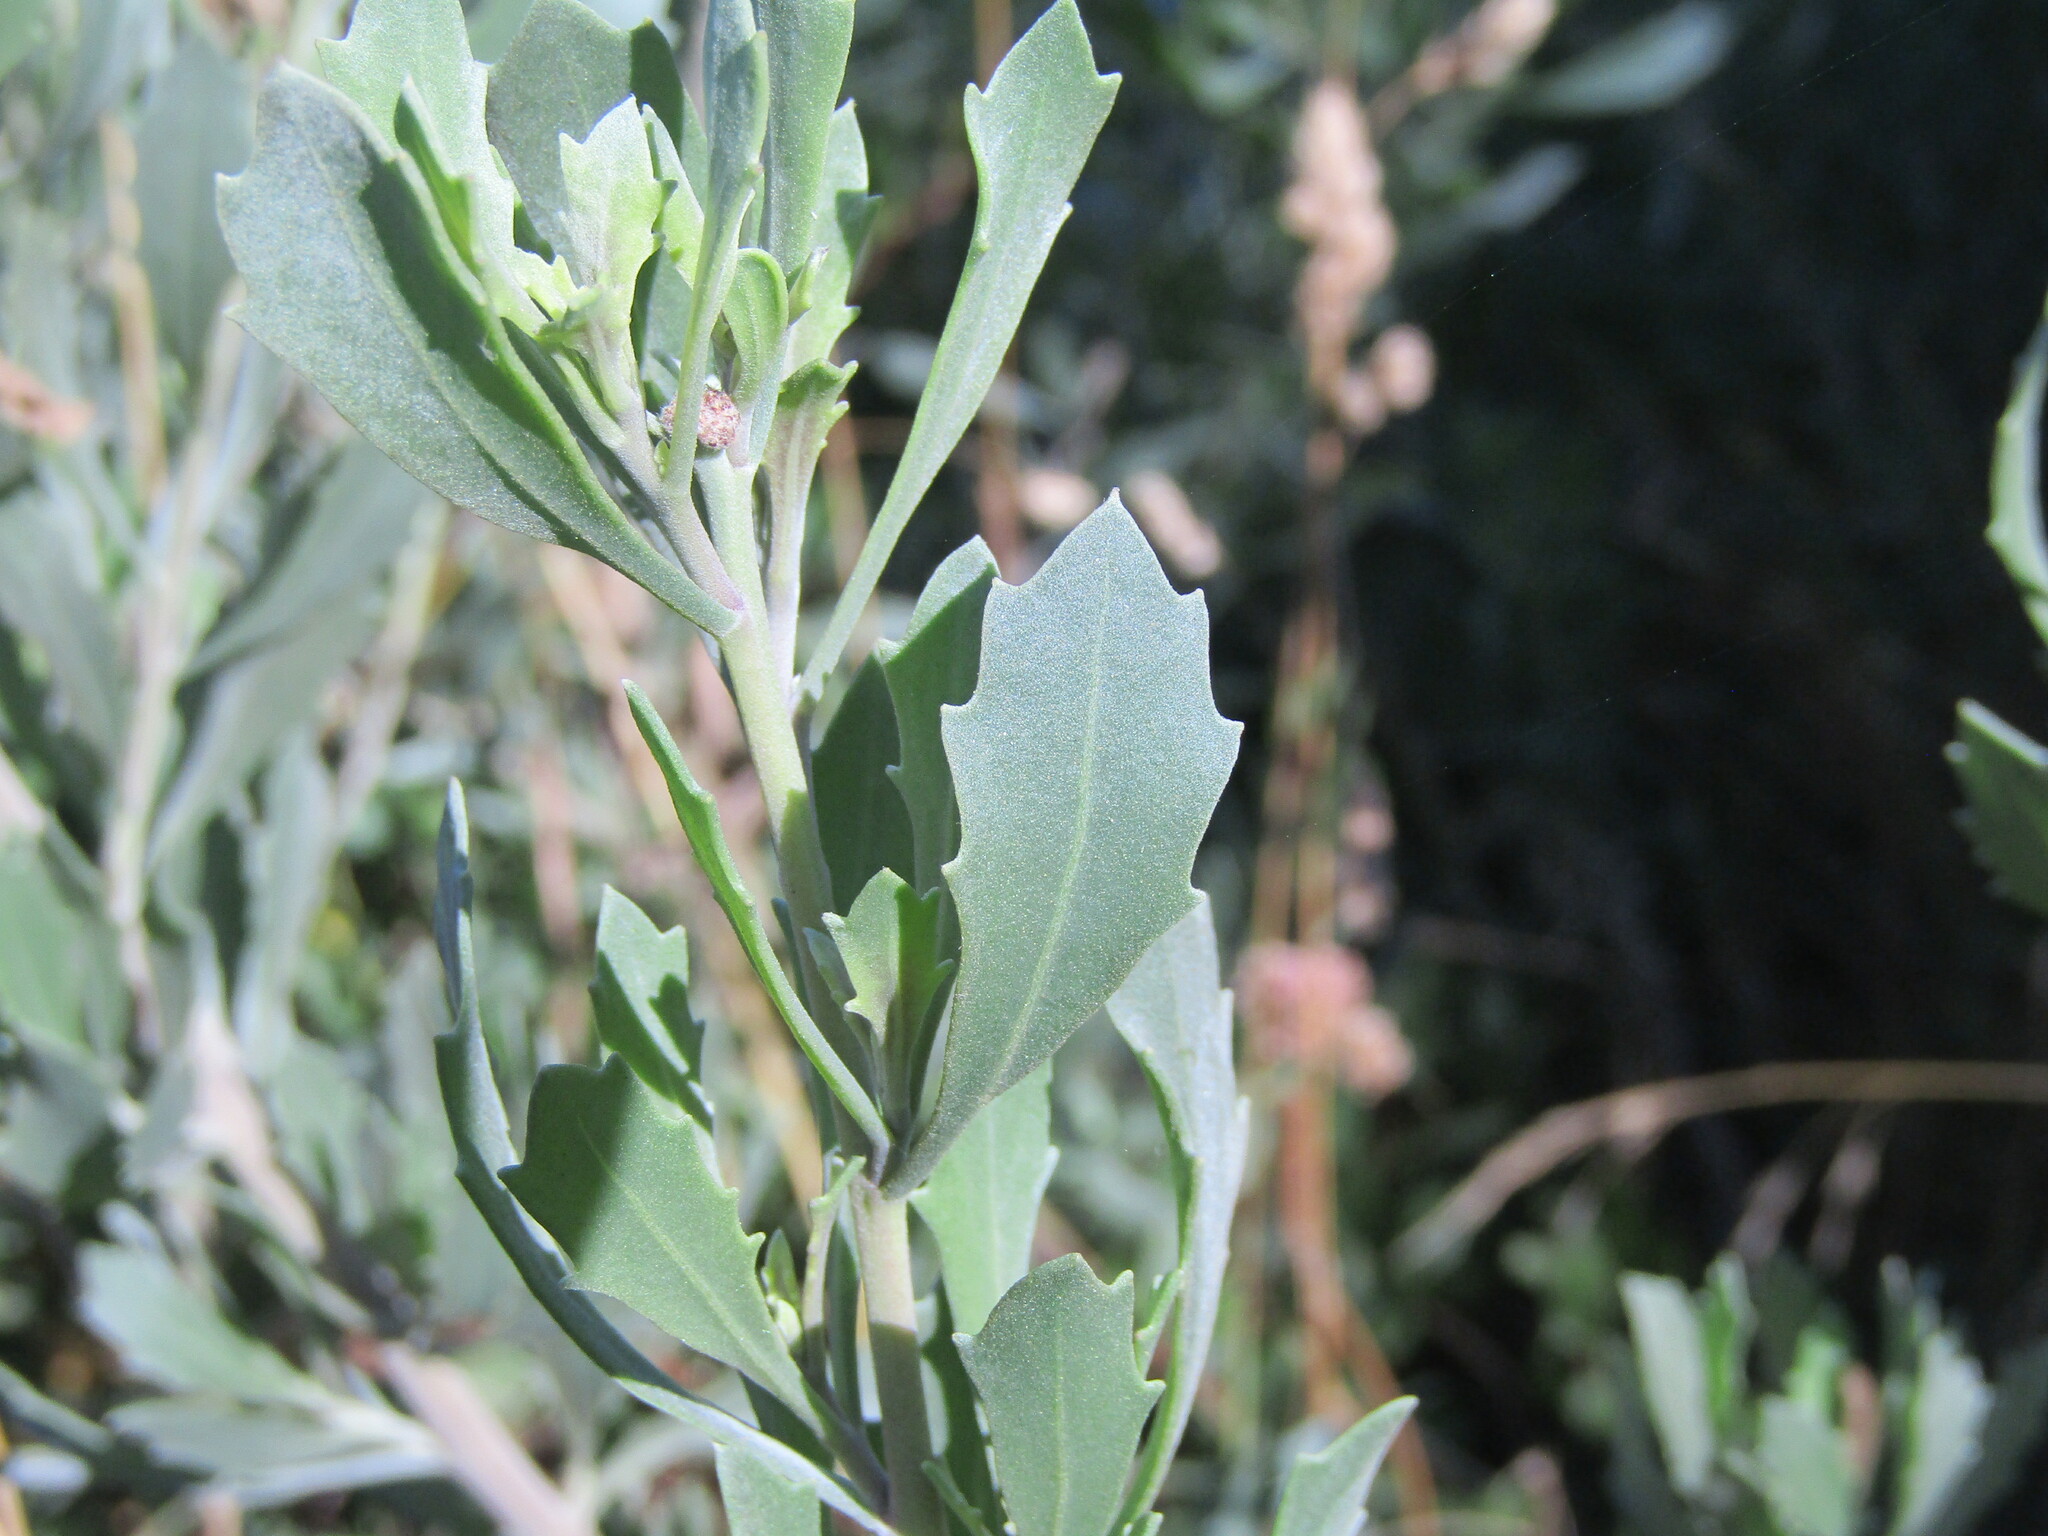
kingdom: Plantae
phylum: Tracheophyta
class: Magnoliopsida
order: Asterales
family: Asteraceae
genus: Tessaria
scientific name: Tessaria absinthioides
